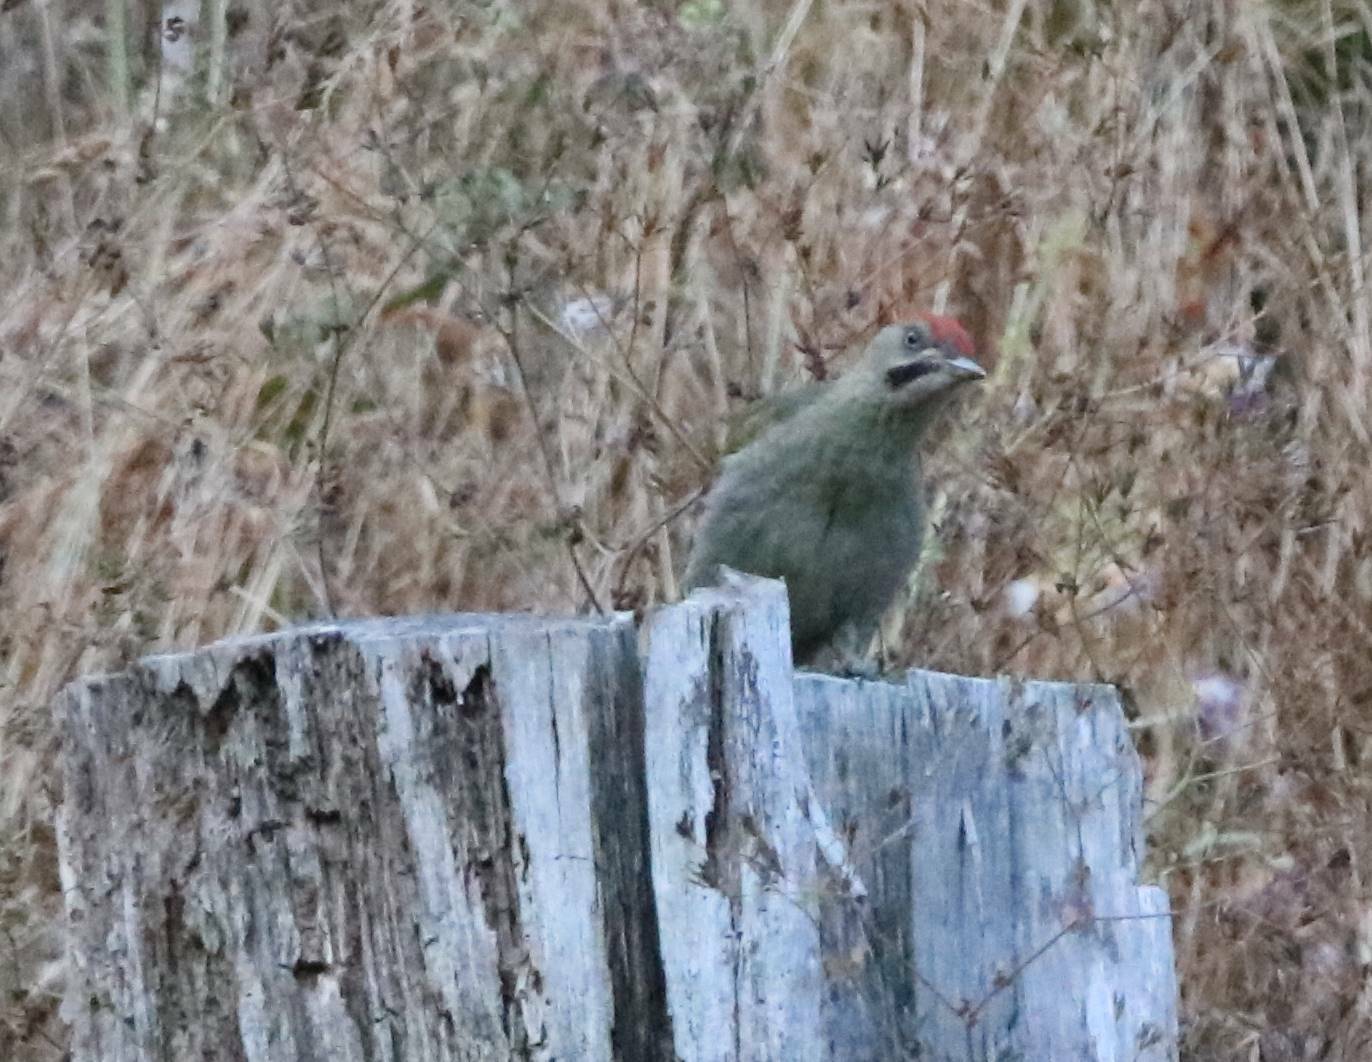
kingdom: Animalia
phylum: Chordata
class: Aves
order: Piciformes
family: Picidae
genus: Picus
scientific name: Picus vaillantii
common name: Levaillant's woodpecker
